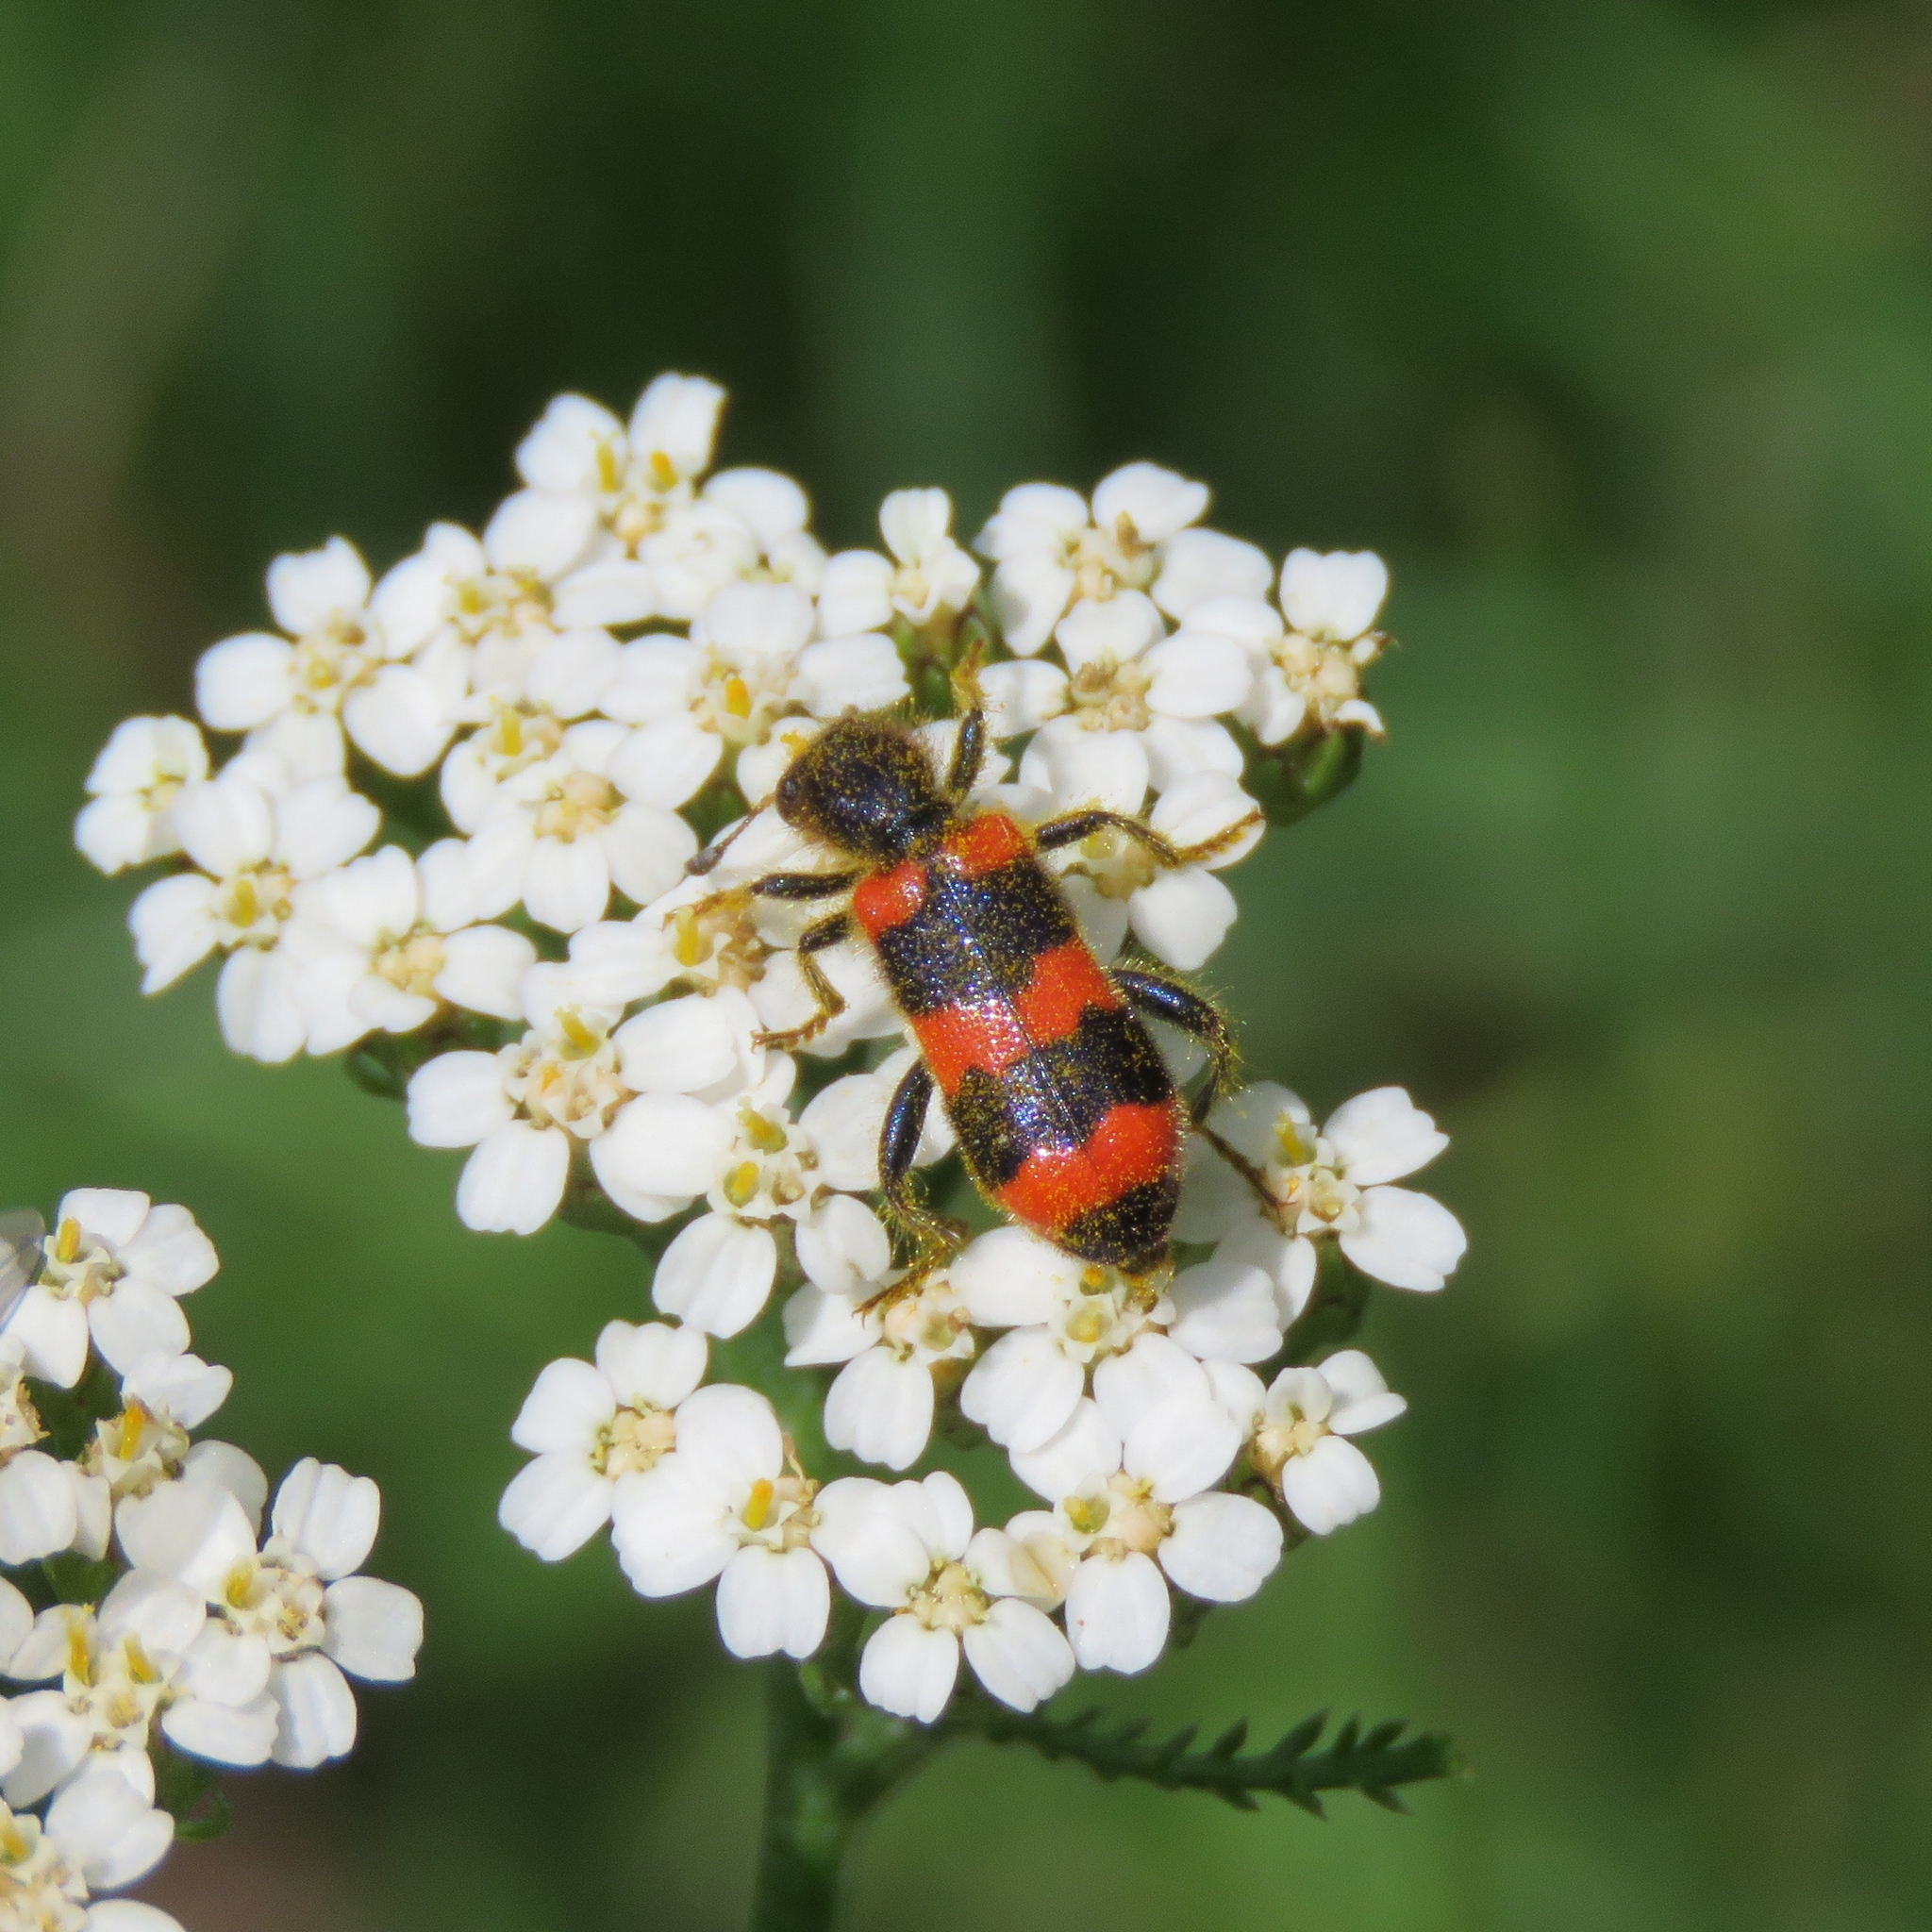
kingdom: Animalia
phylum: Arthropoda
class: Insecta
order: Coleoptera
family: Cleridae
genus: Trichodes
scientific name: Trichodes apiarius
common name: Bee-eating beetle
